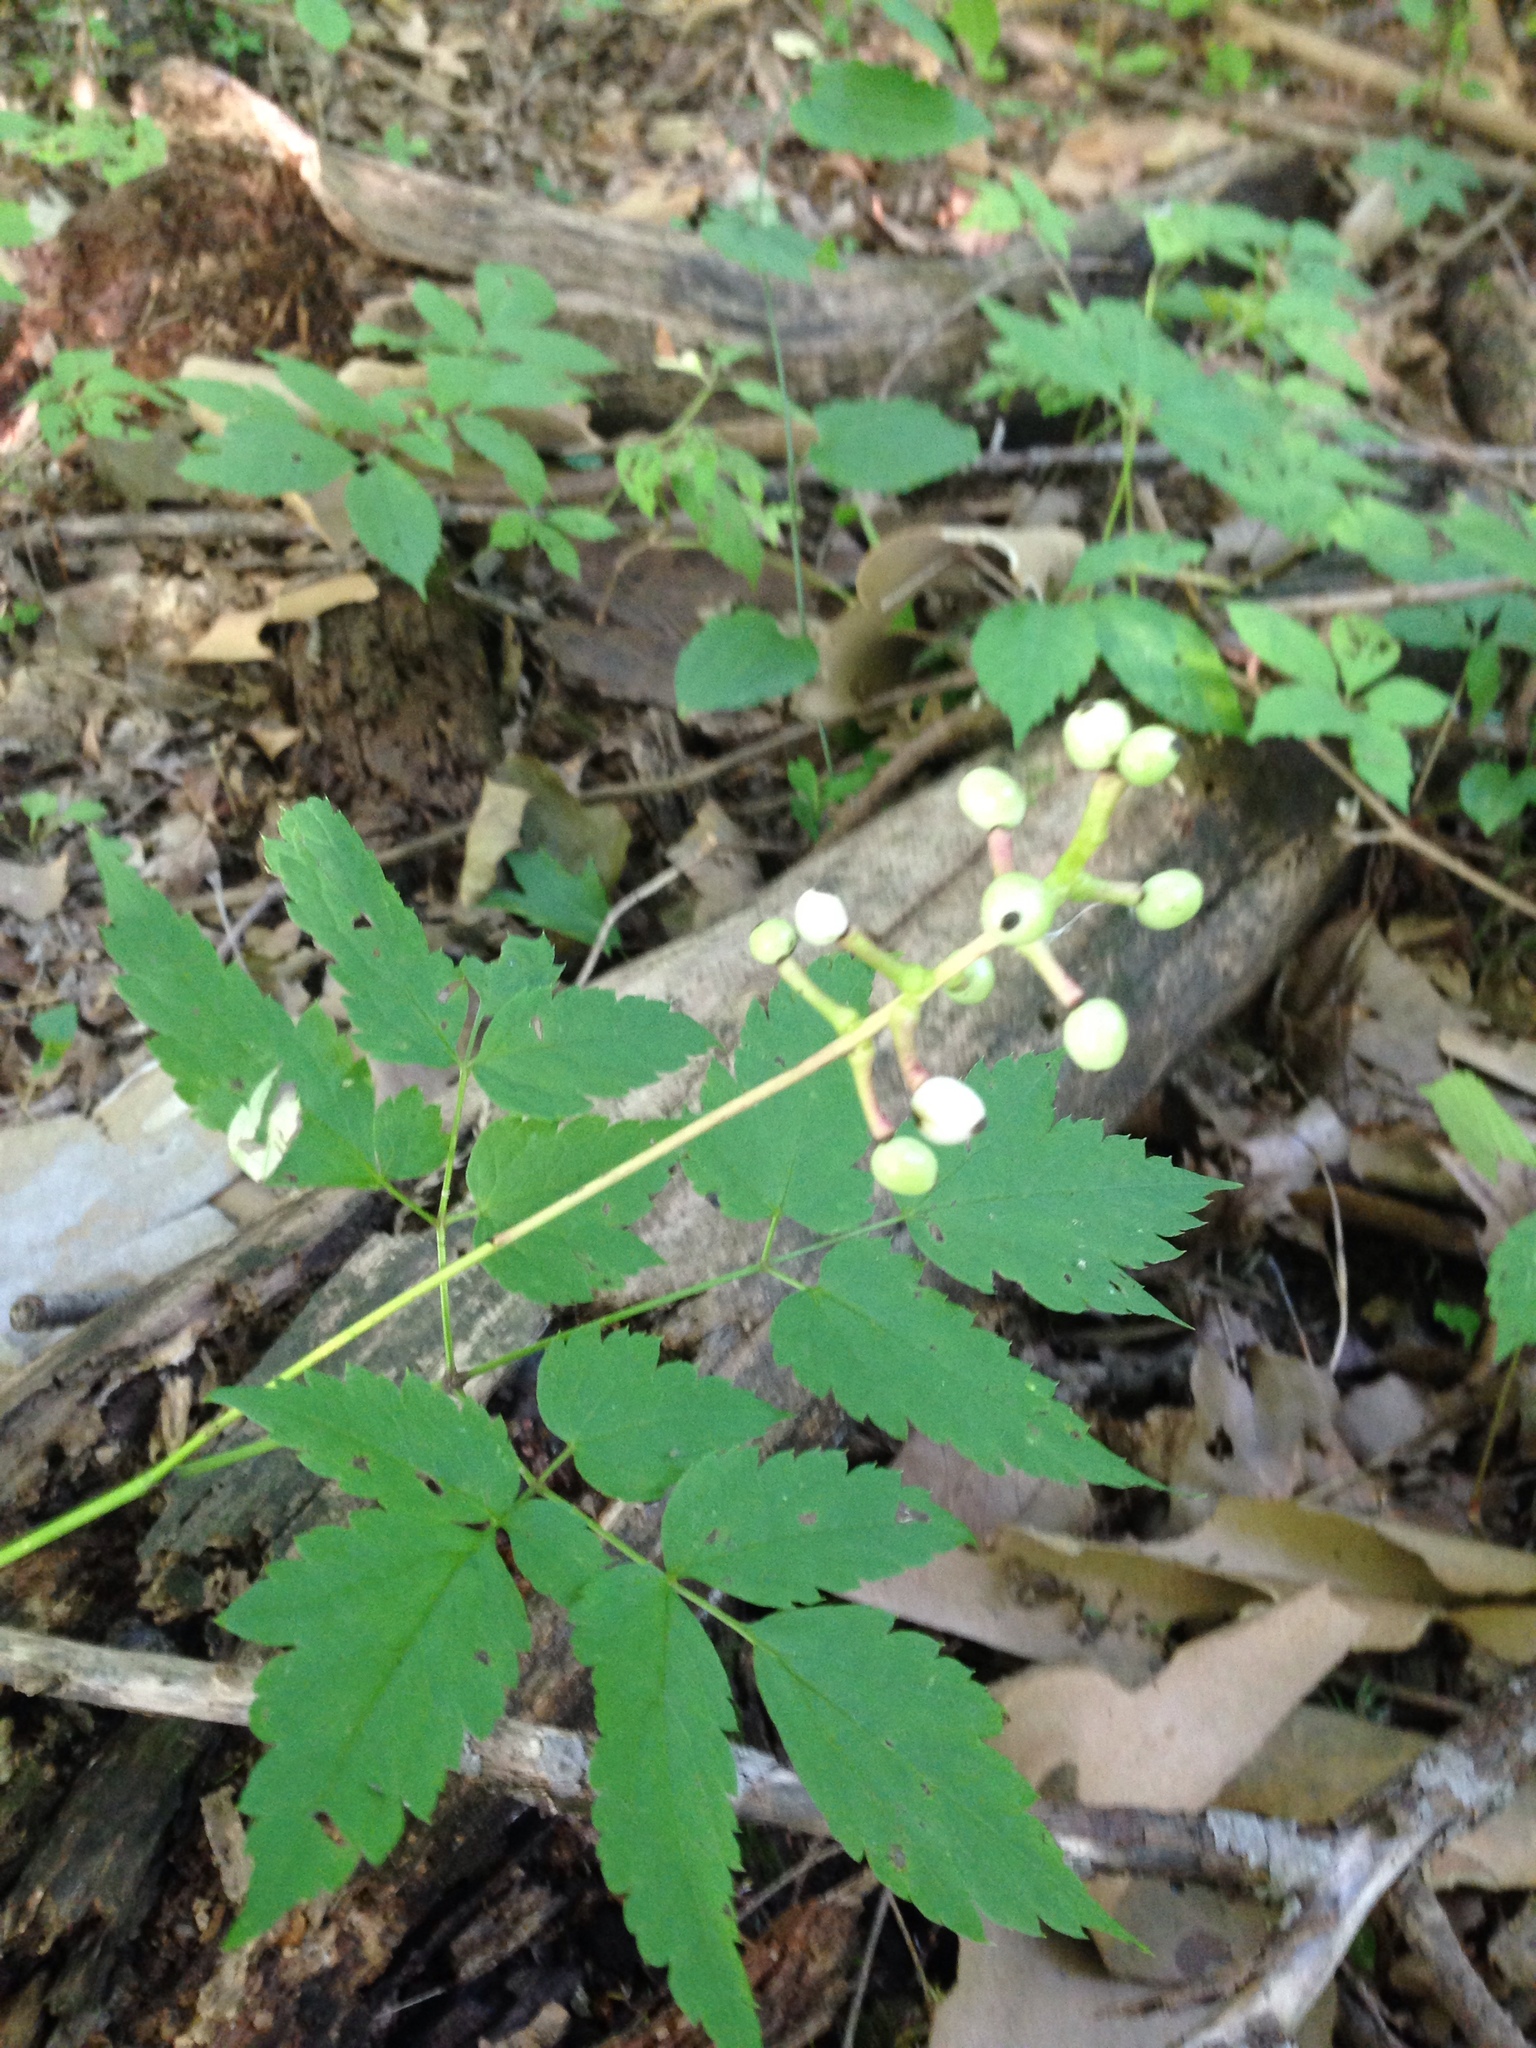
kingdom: Plantae
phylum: Tracheophyta
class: Magnoliopsida
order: Ranunculales
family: Ranunculaceae
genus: Actaea
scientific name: Actaea pachypoda
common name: Doll's-eyes
